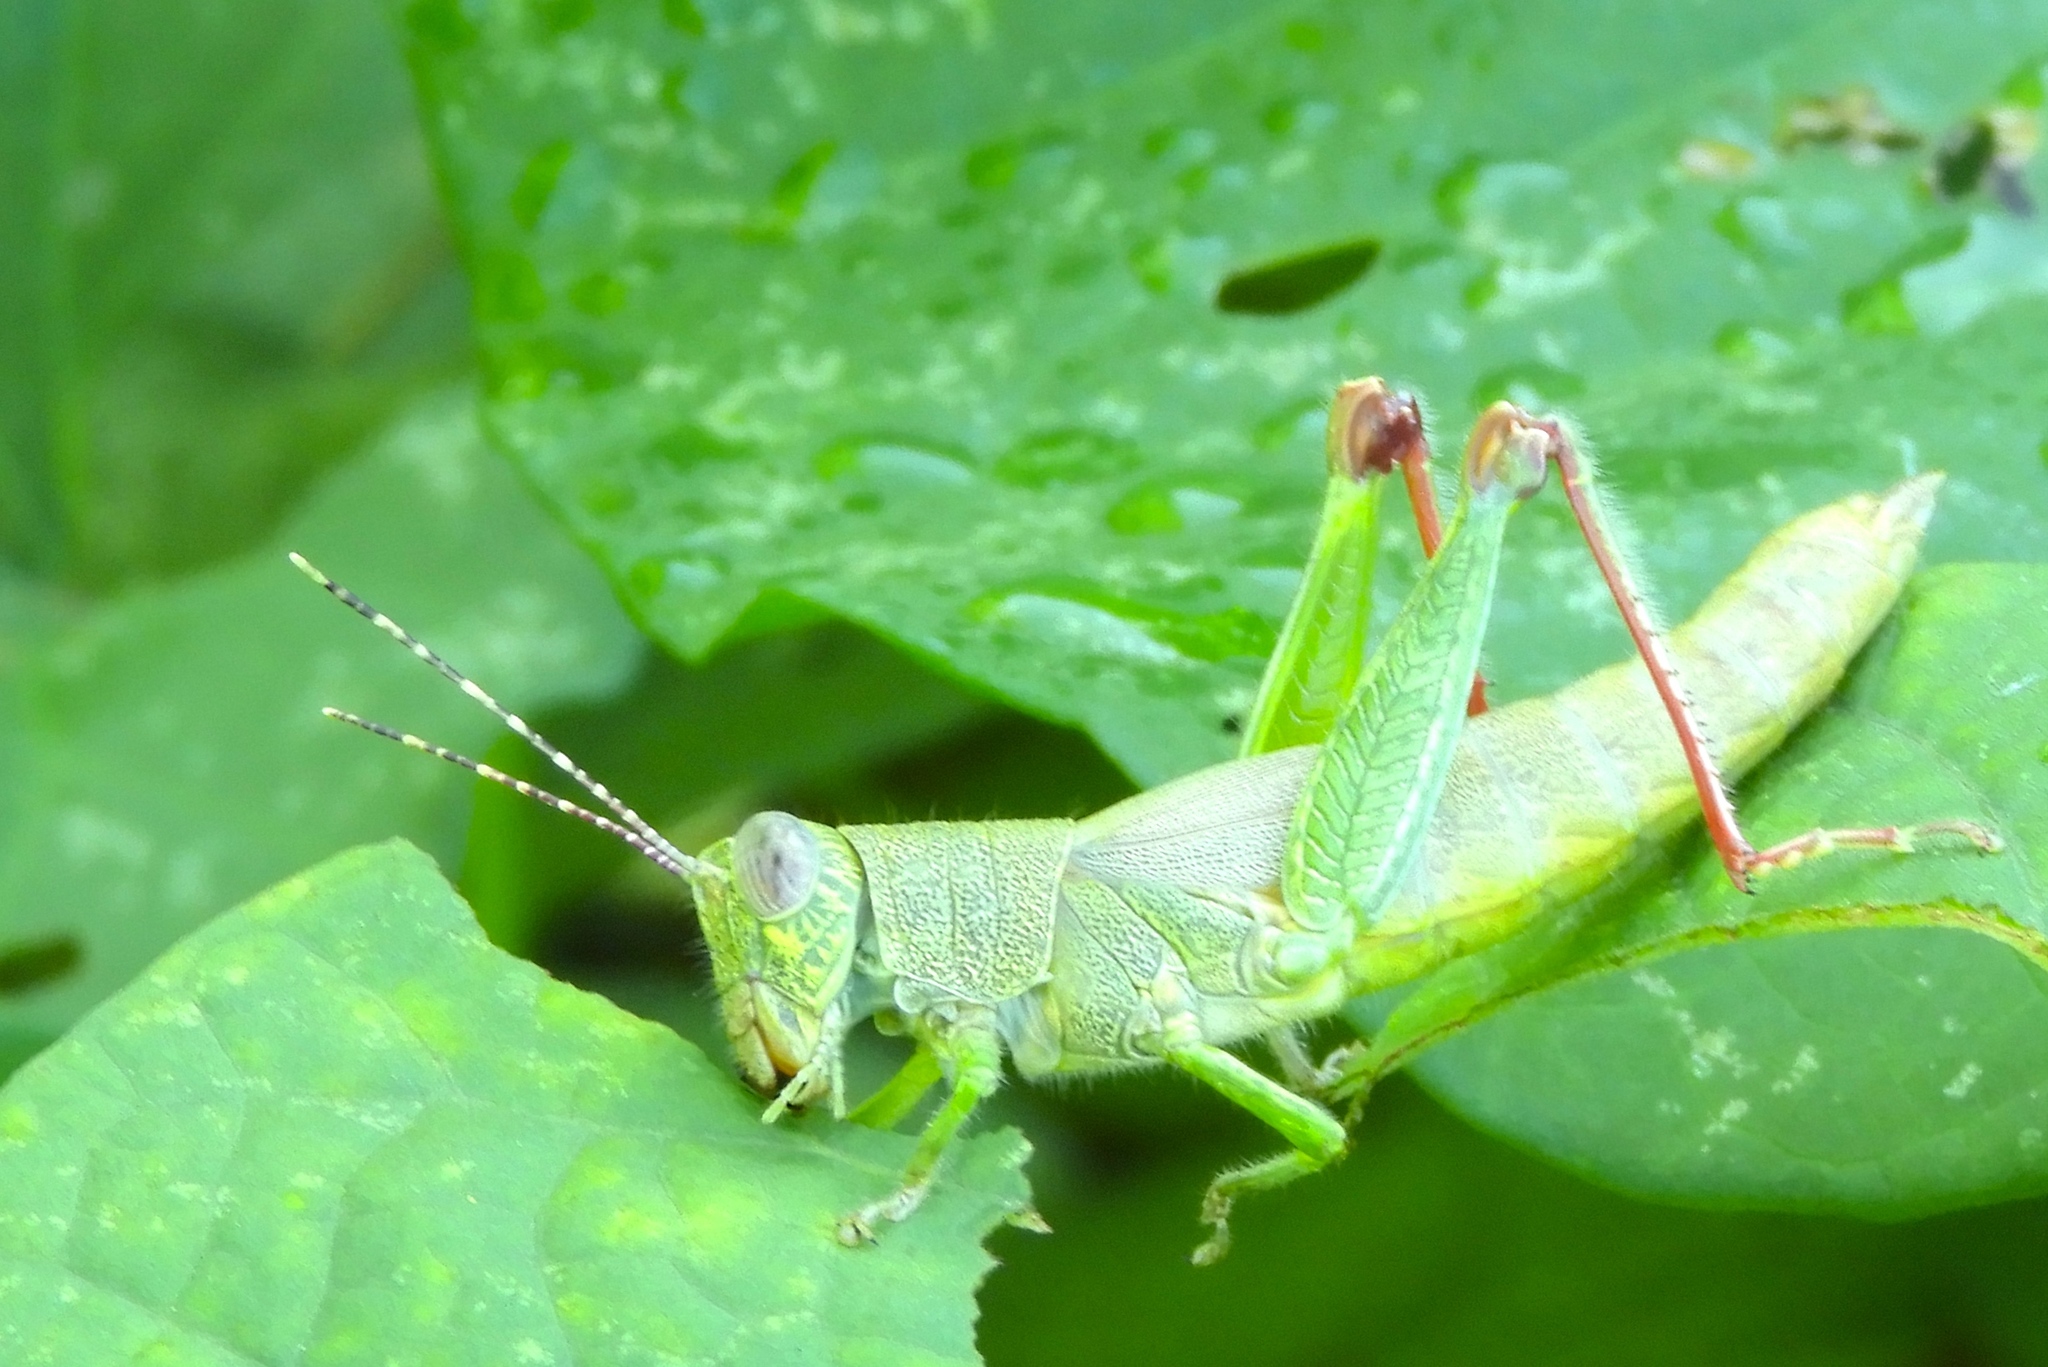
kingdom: Animalia
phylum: Arthropoda
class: Insecta
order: Orthoptera
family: Acrididae
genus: Proctolabus
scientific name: Proctolabus cerciatus
